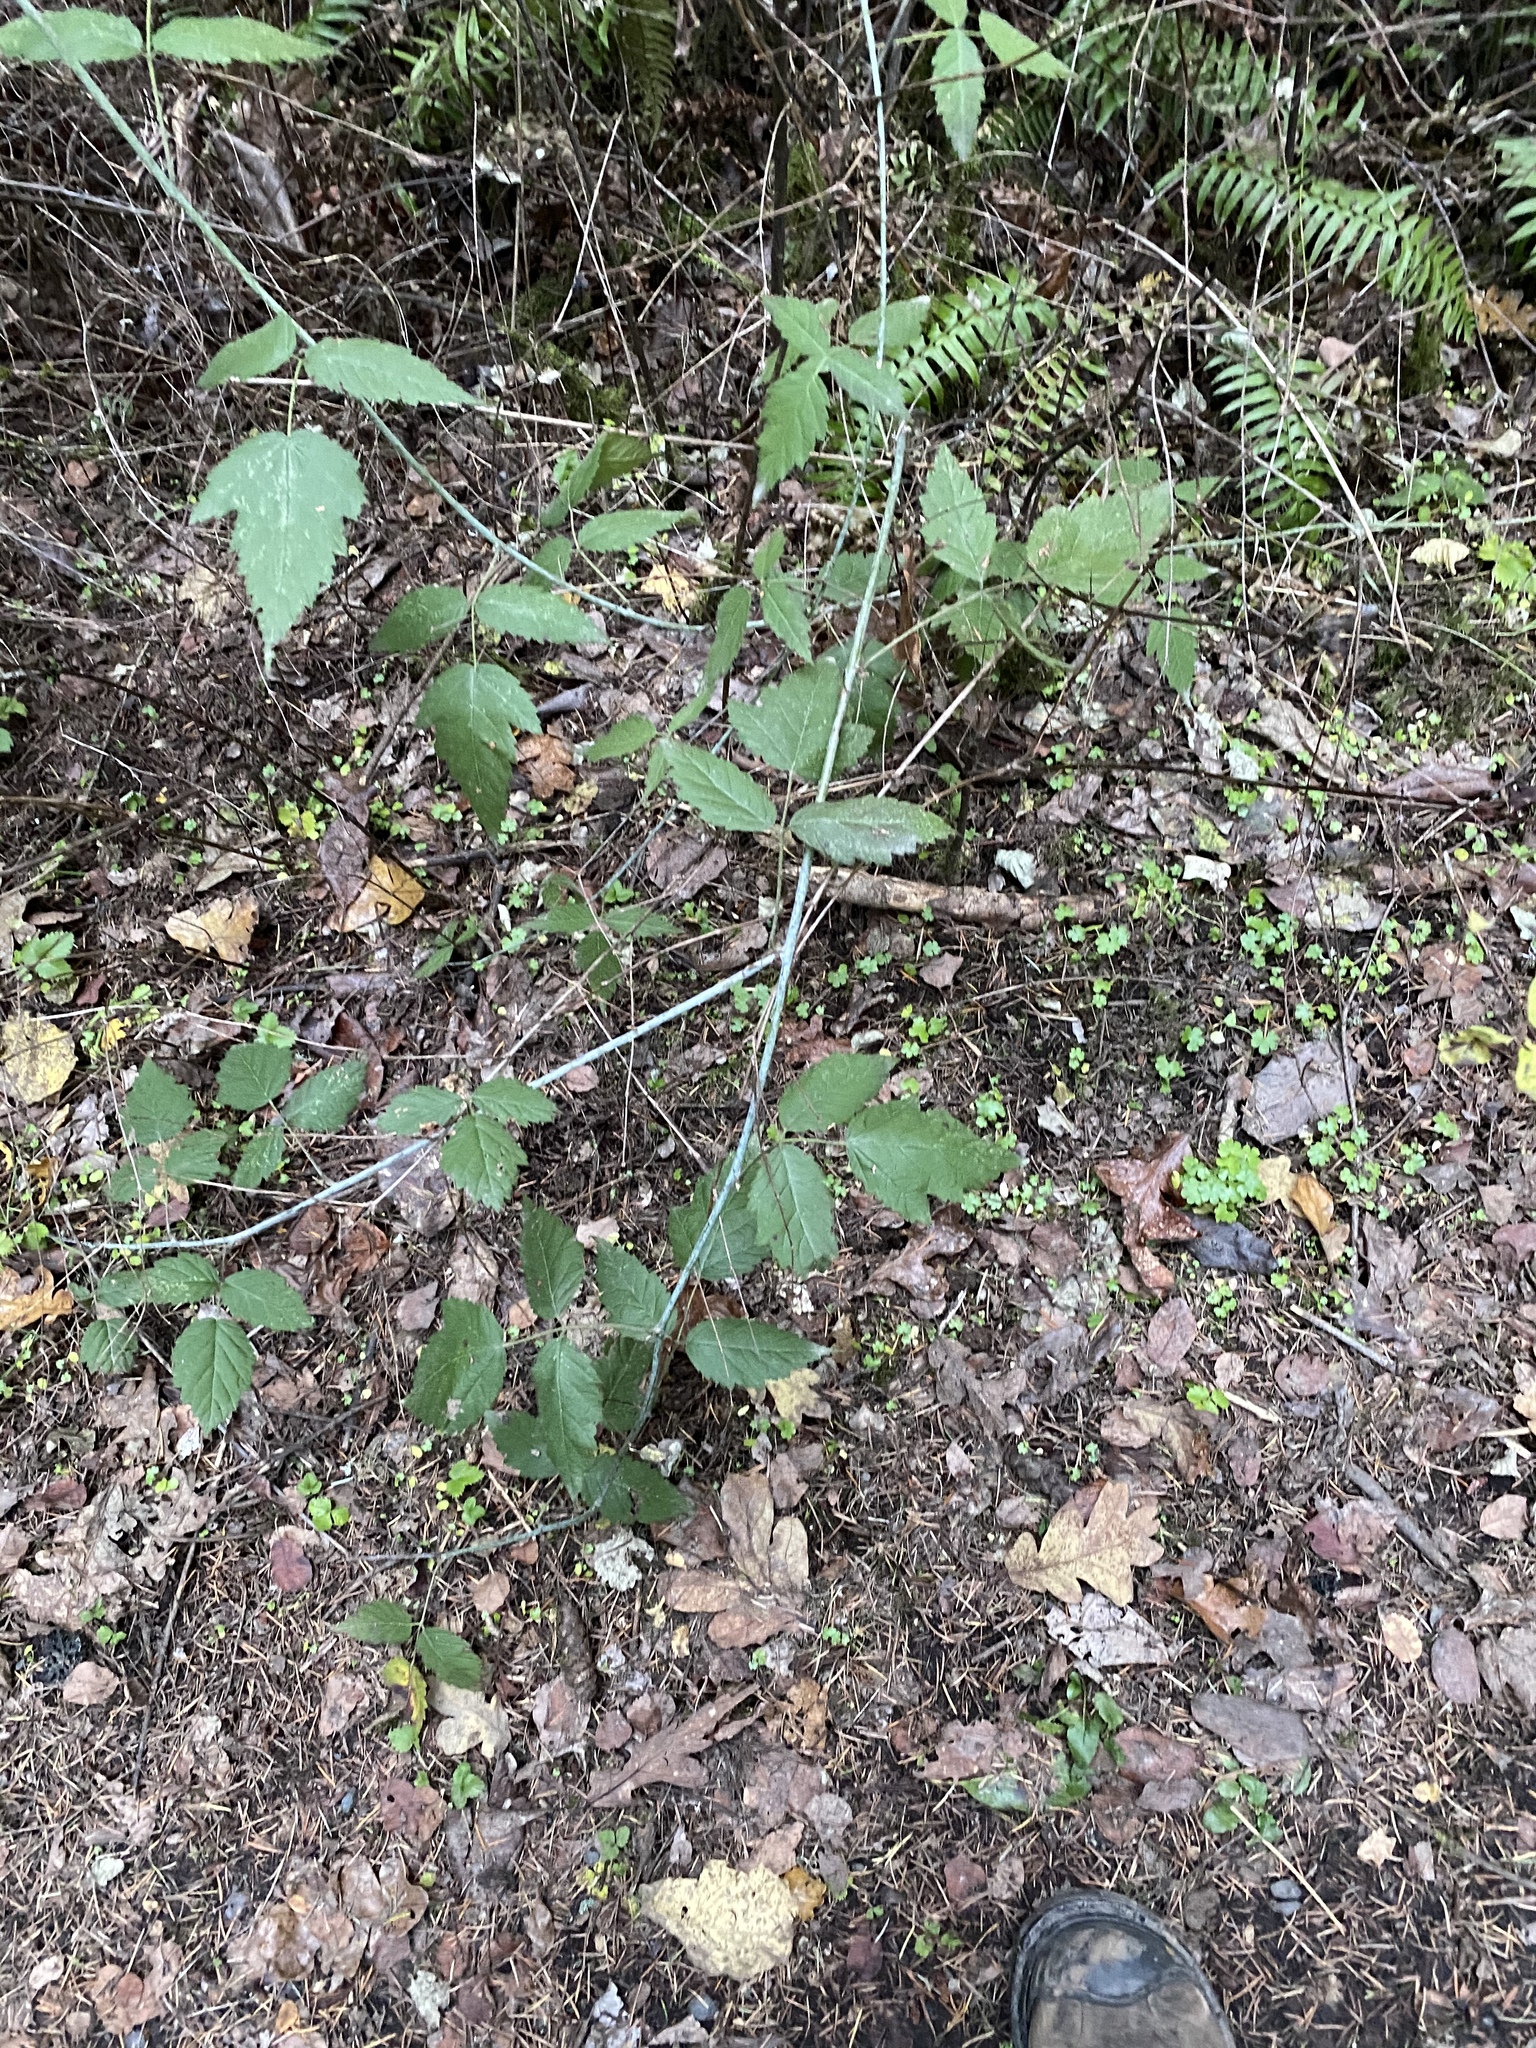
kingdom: Plantae
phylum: Tracheophyta
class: Magnoliopsida
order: Rosales
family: Rosaceae
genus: Rubus
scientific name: Rubus ursinus
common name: Pacific blackberry
